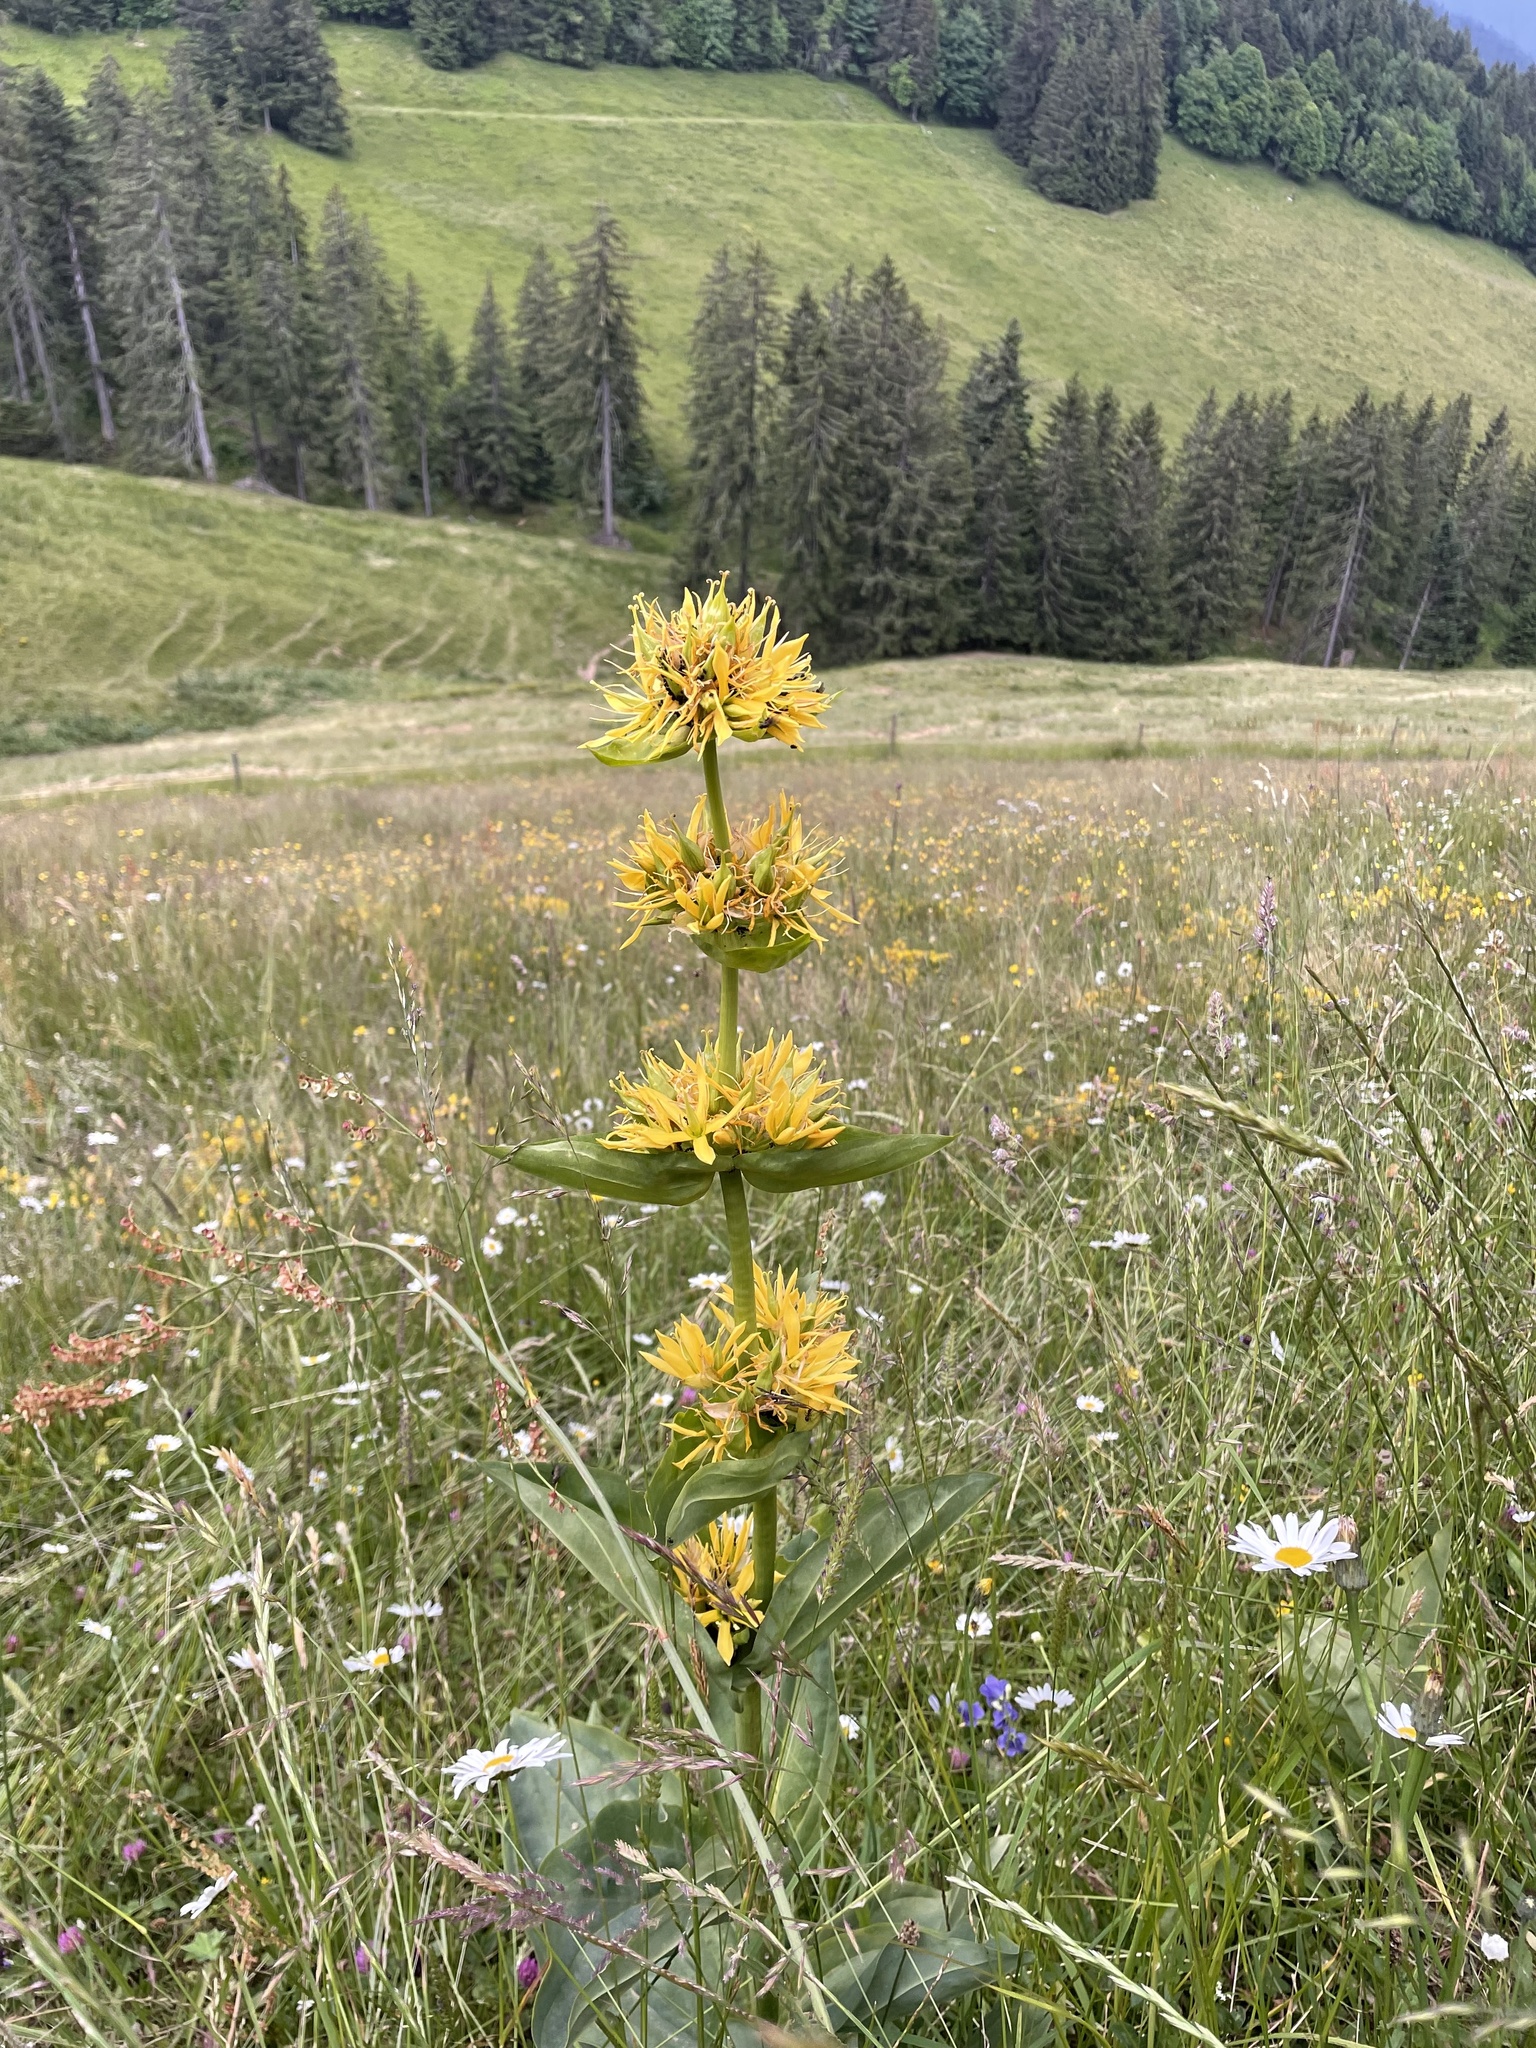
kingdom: Plantae
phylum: Tracheophyta
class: Magnoliopsida
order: Gentianales
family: Gentianaceae
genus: Gentiana
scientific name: Gentiana lutea
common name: Great yellow gentian
